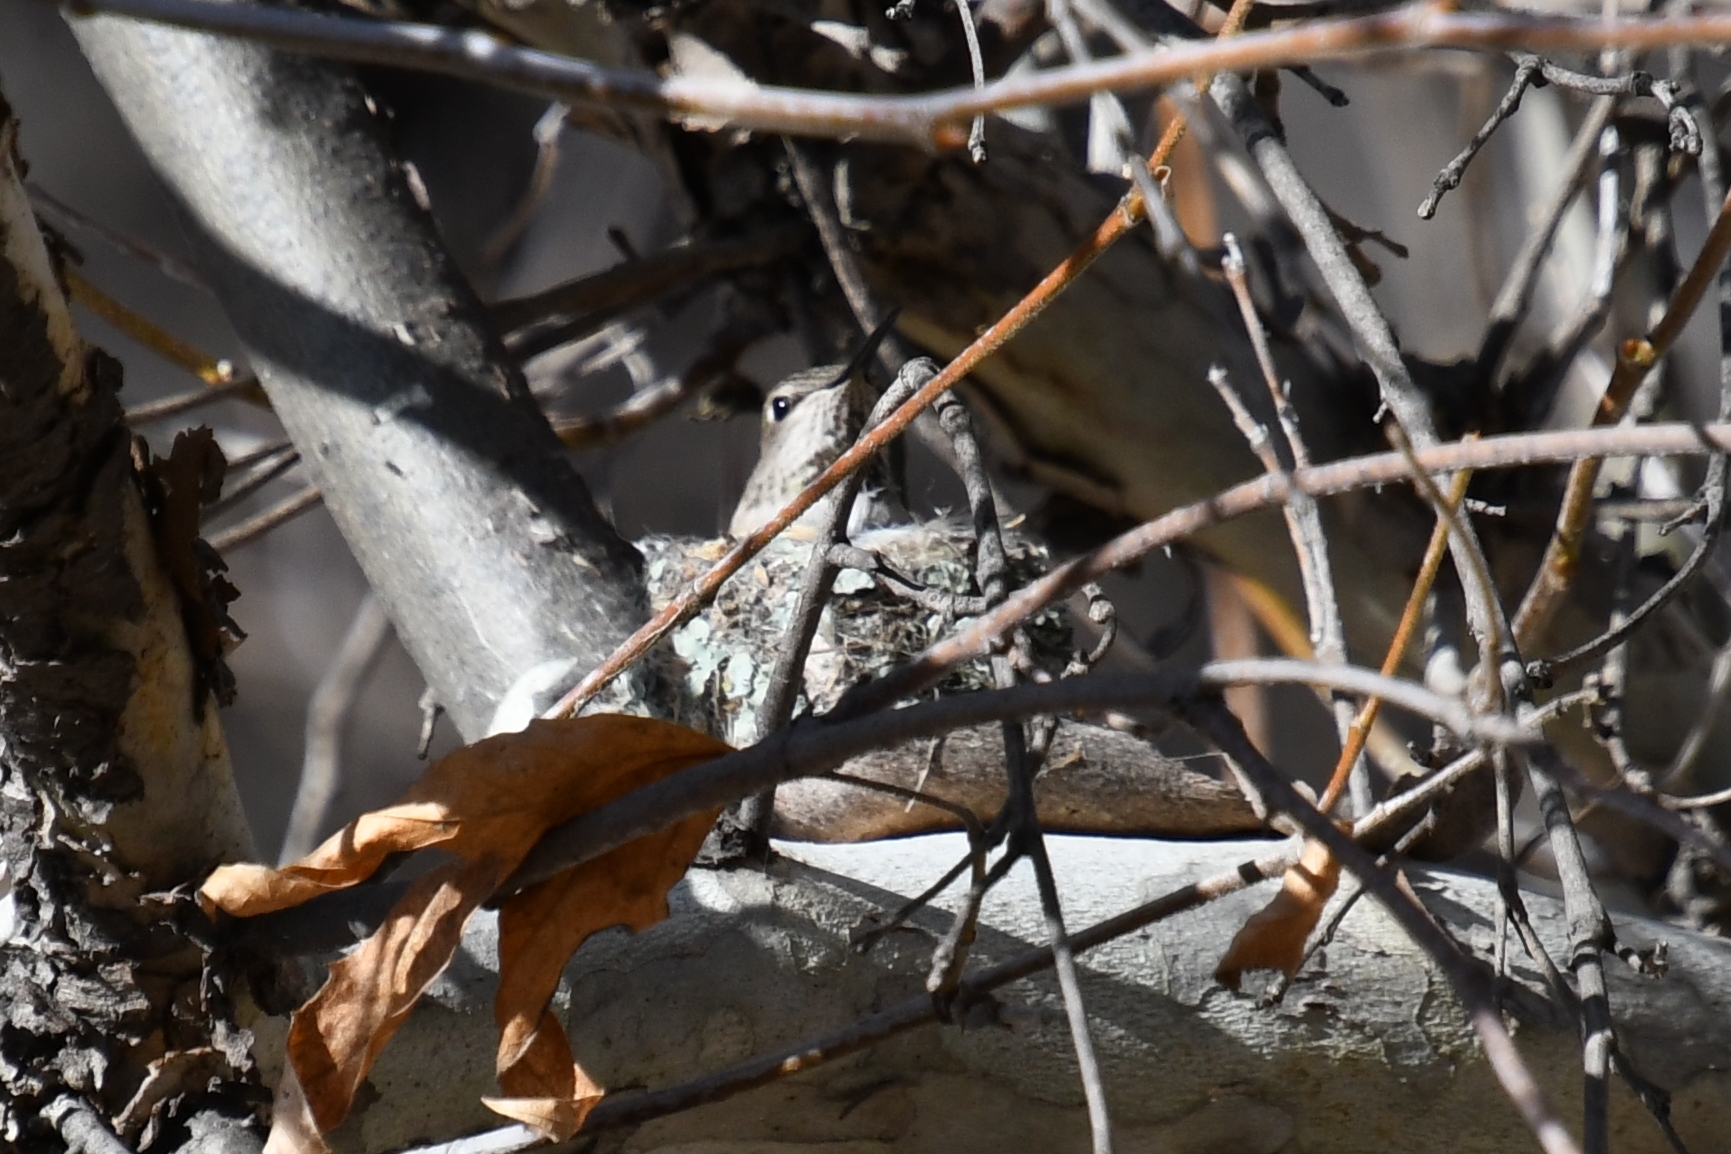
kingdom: Animalia
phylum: Chordata
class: Aves
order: Apodiformes
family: Trochilidae
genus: Calypte
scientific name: Calypte anna
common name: Anna's hummingbird
